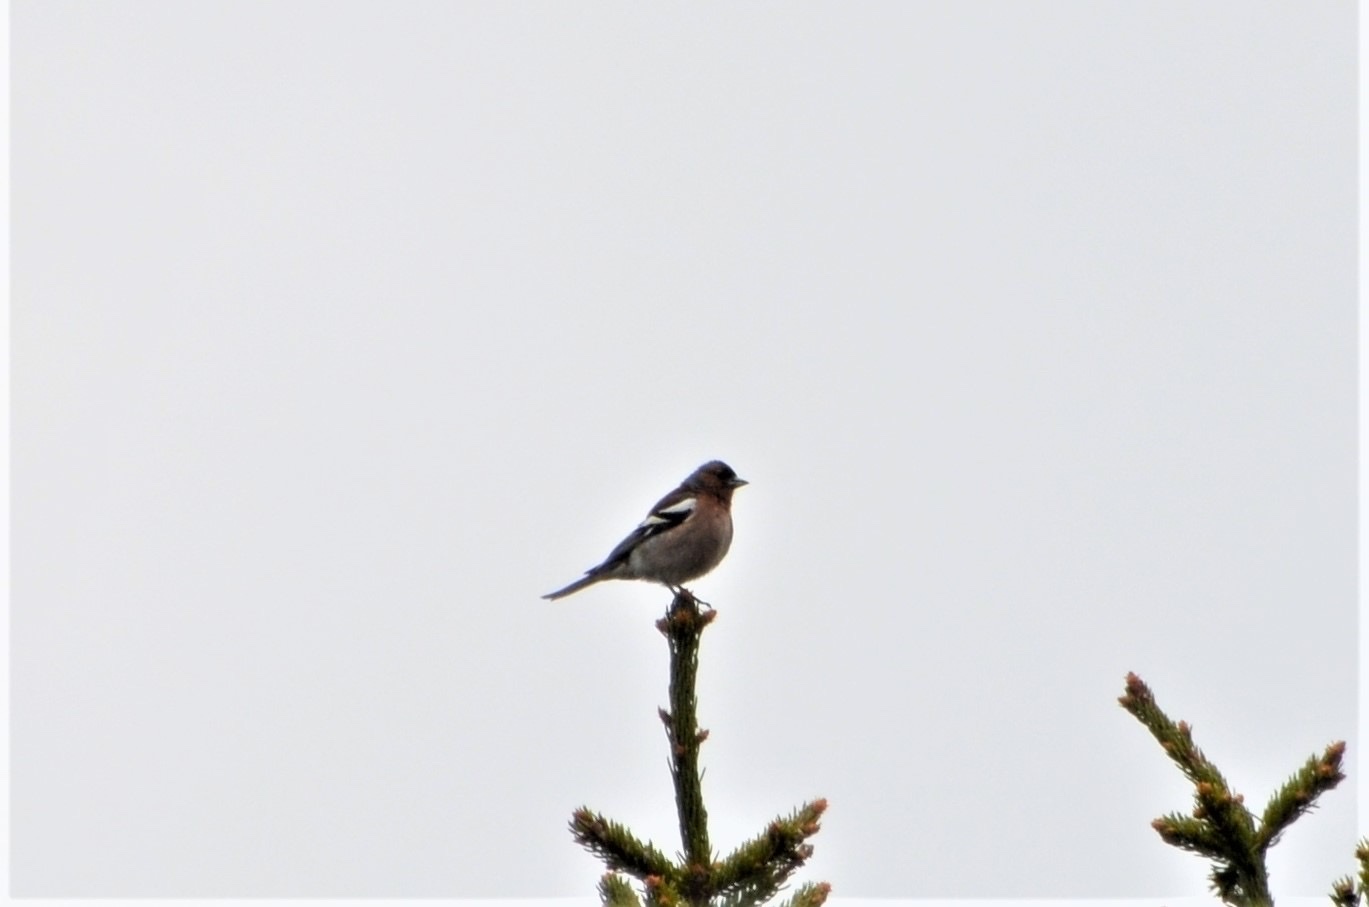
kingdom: Animalia
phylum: Chordata
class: Aves
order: Passeriformes
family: Fringillidae
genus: Fringilla
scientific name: Fringilla coelebs
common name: Common chaffinch
